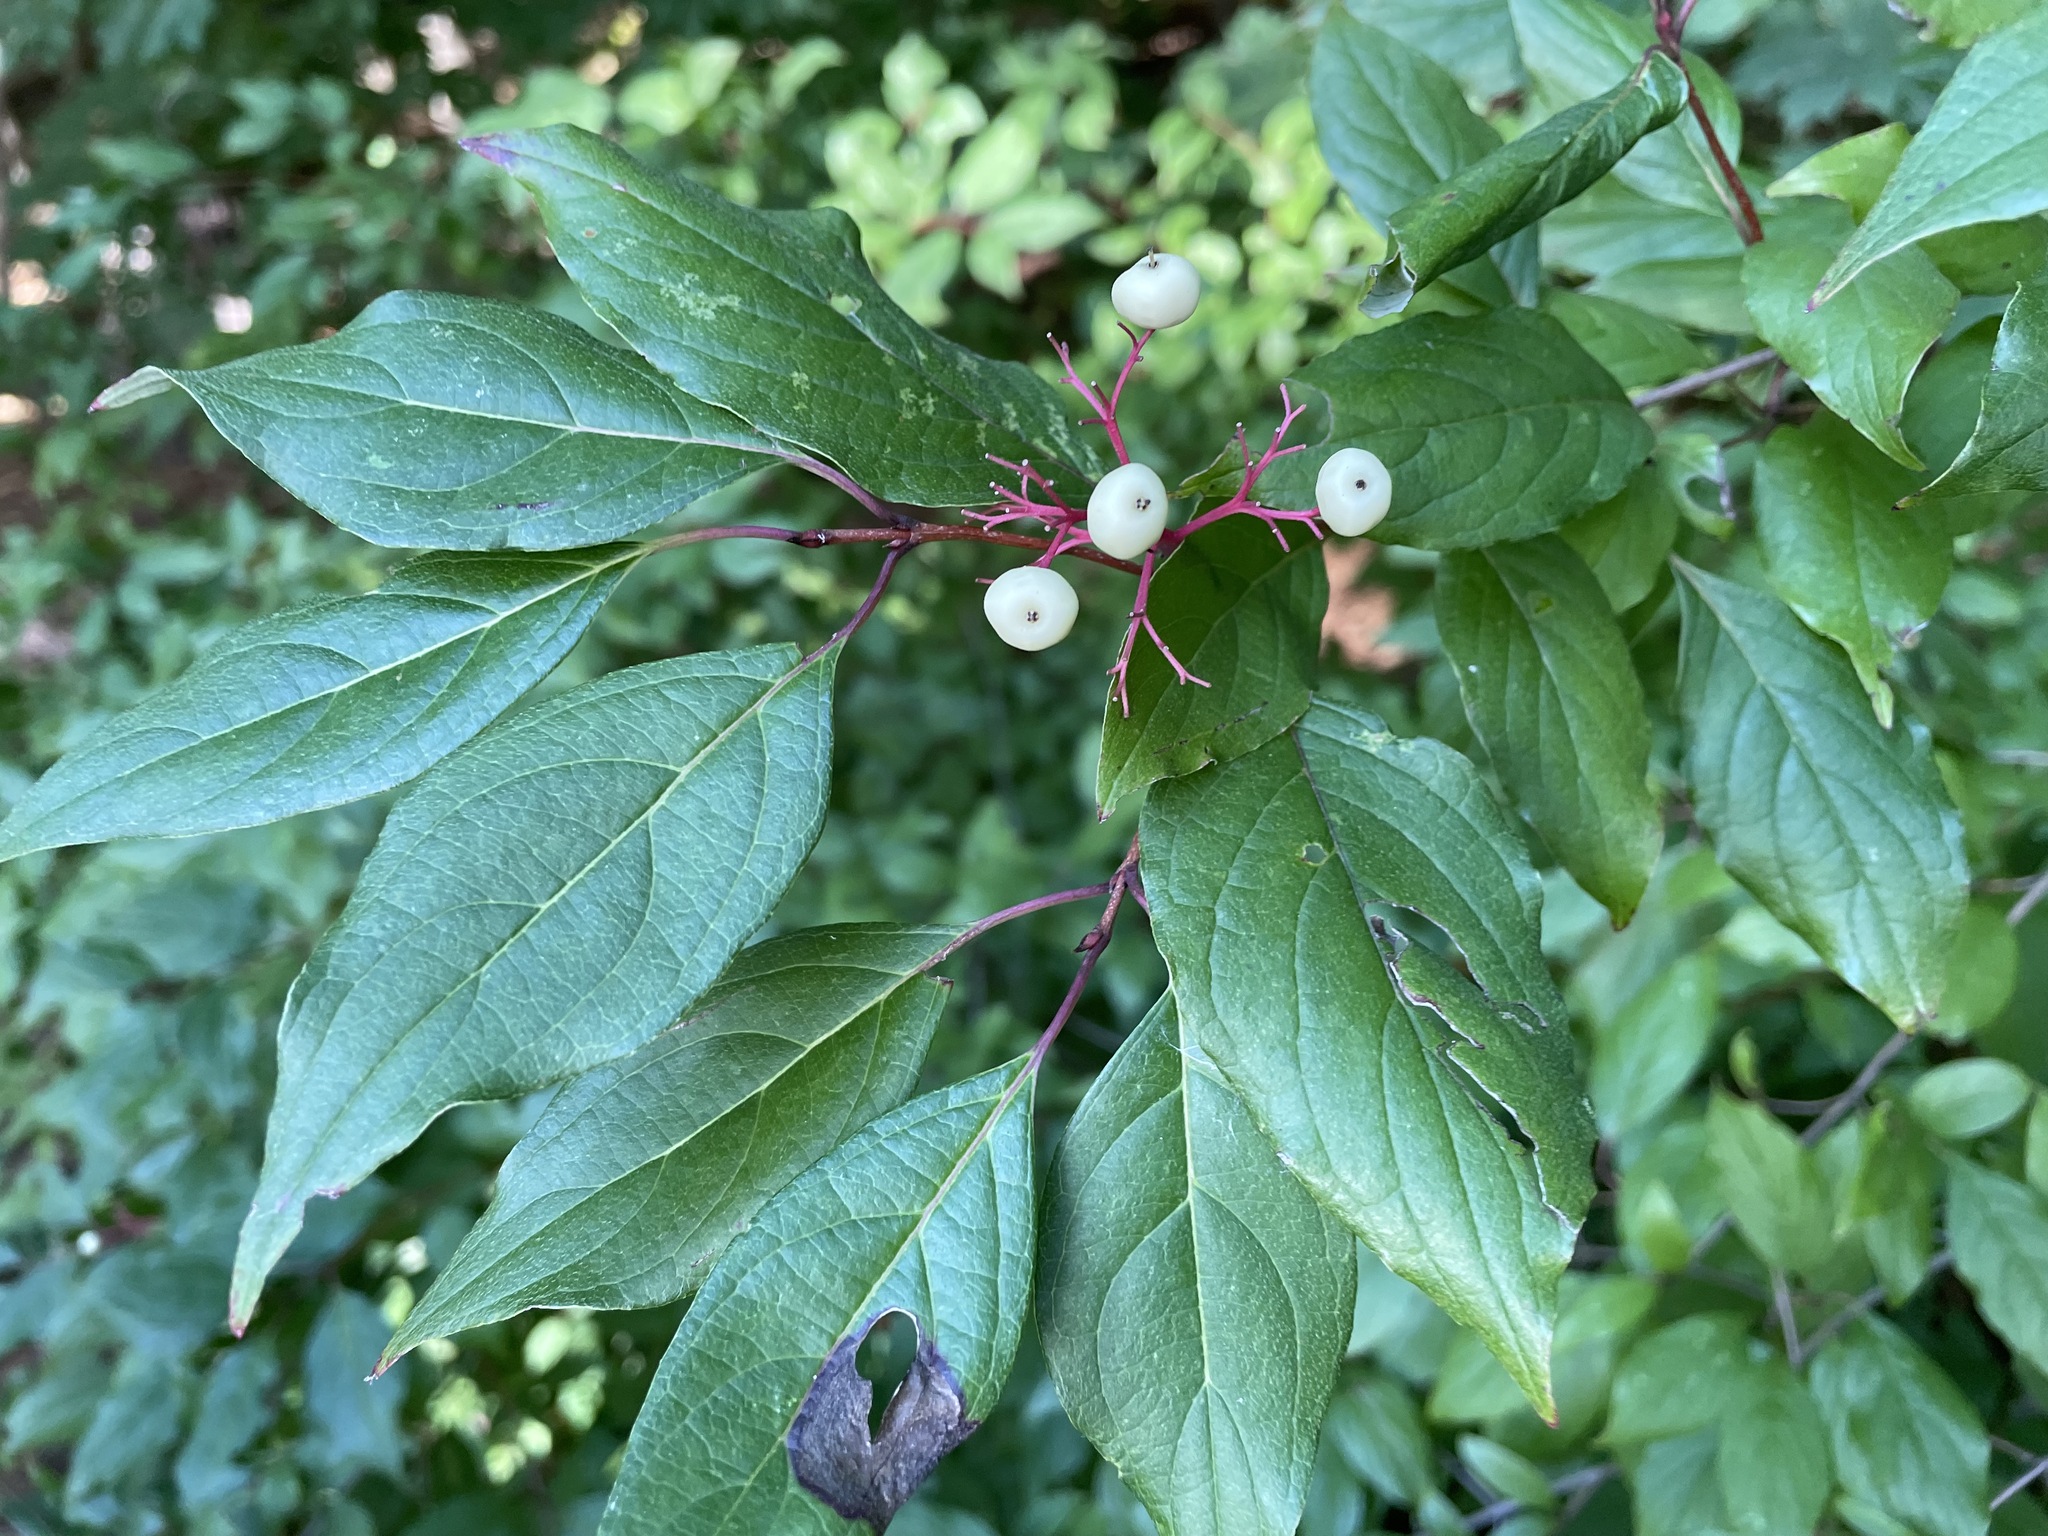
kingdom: Plantae
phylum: Tracheophyta
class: Magnoliopsida
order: Cornales
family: Cornaceae
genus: Cornus
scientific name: Cornus racemosa
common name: Panicled dogwood
